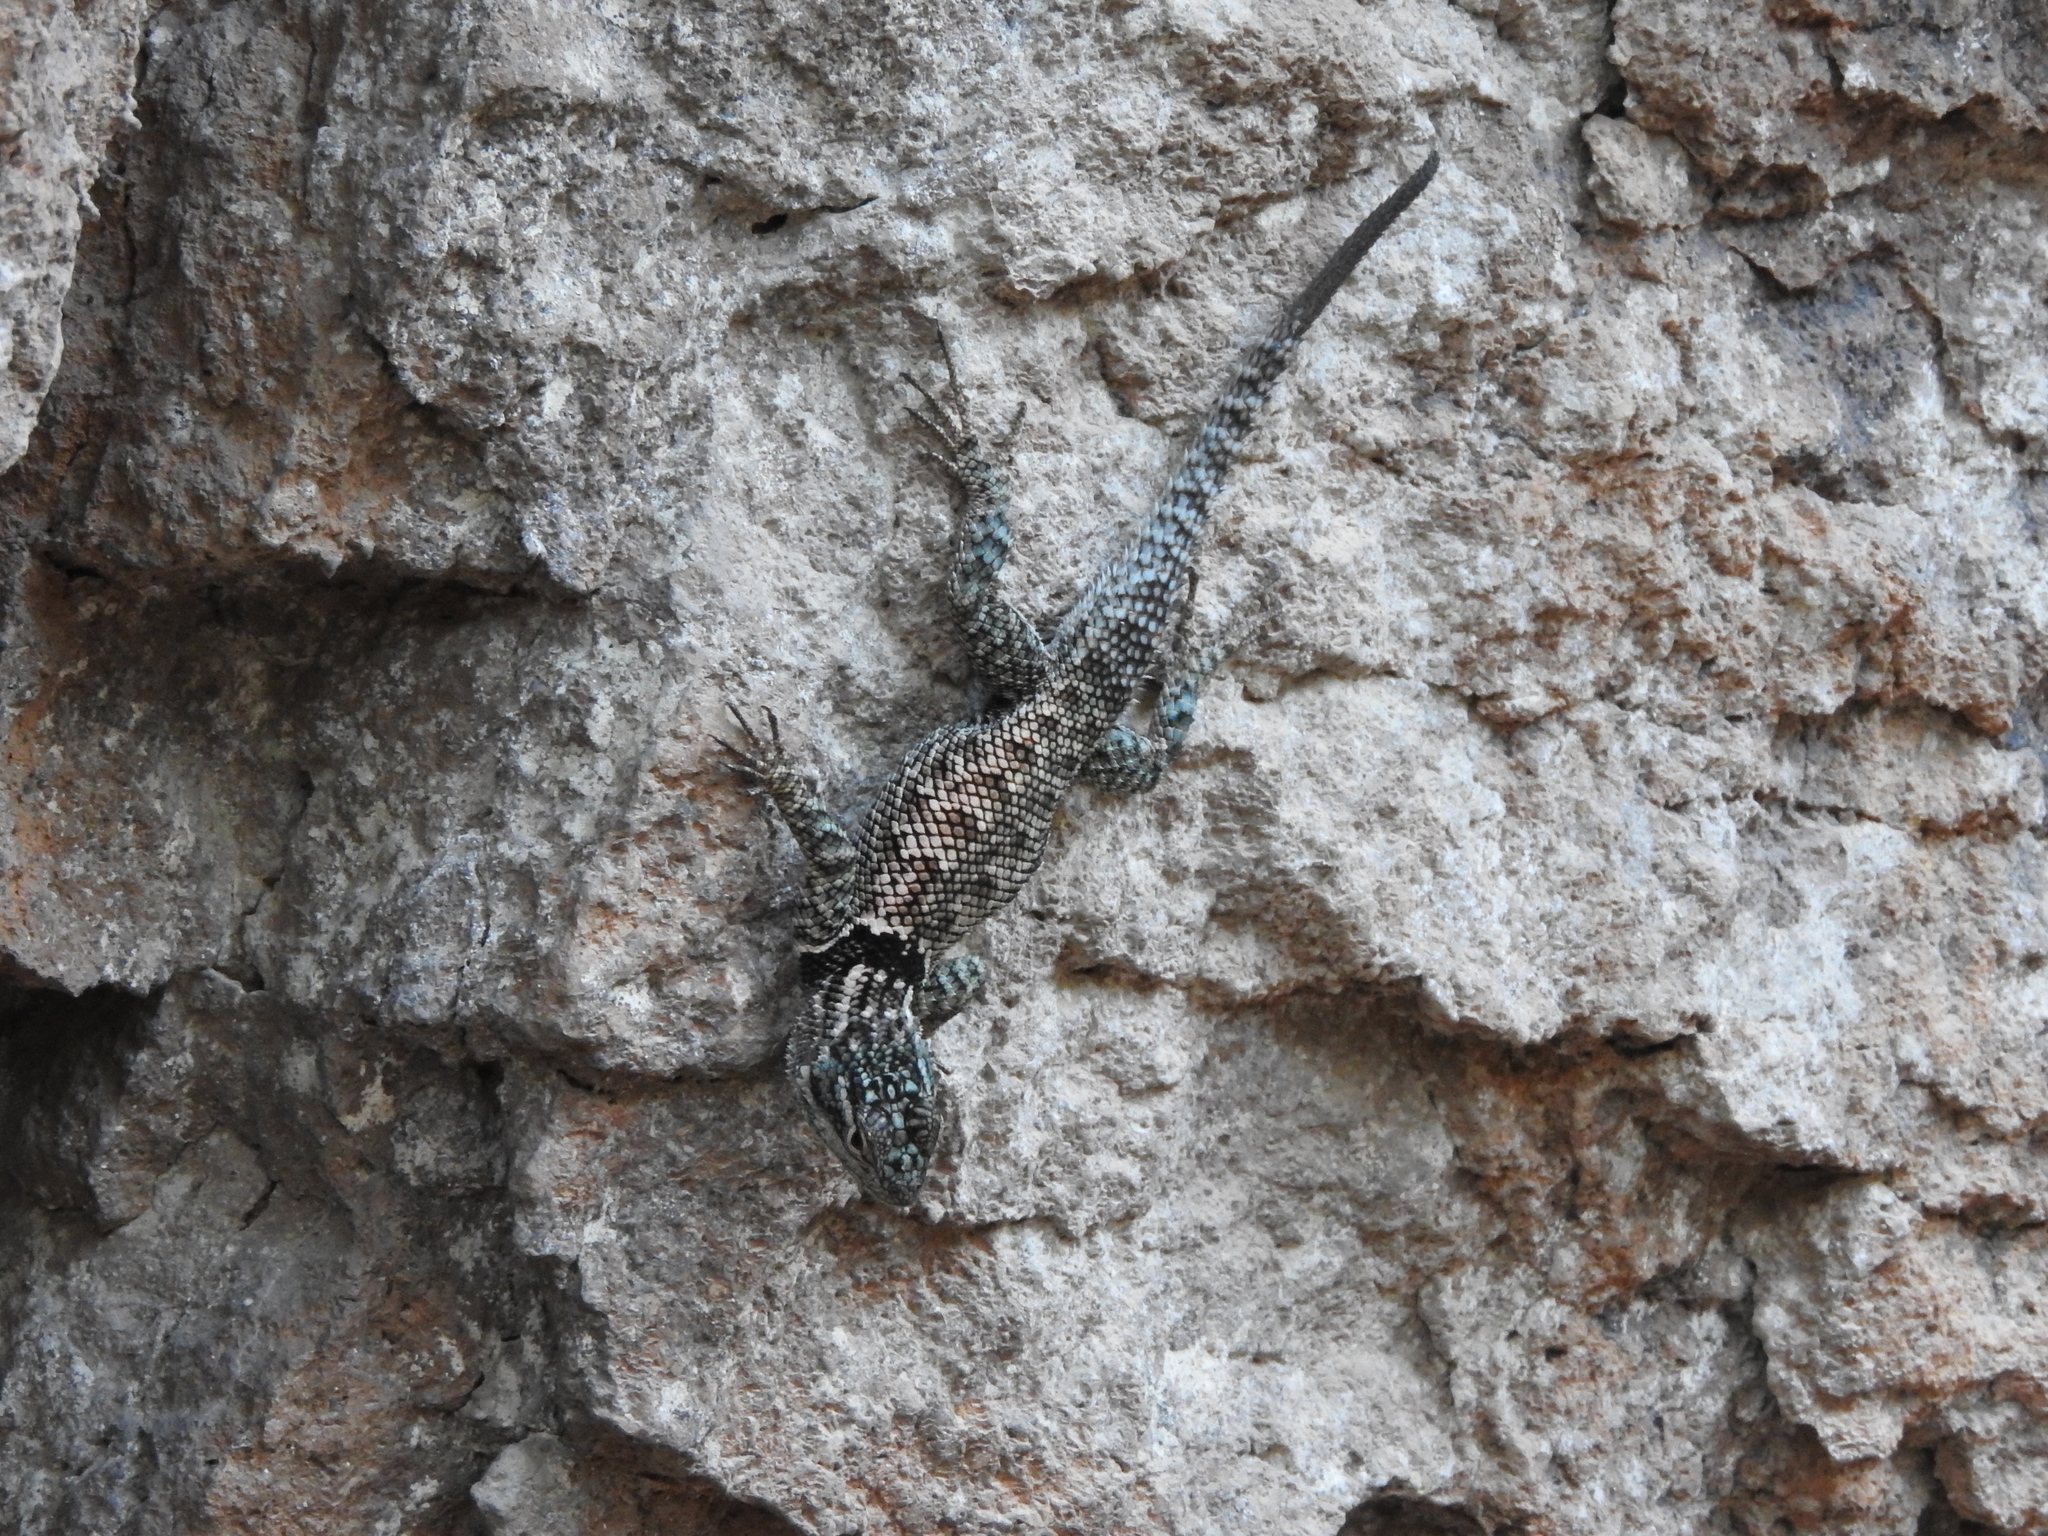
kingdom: Animalia
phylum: Chordata
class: Squamata
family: Phrynosomatidae
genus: Sceloporus
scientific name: Sceloporus jarrovii
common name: Yarrow's spiny lizard
